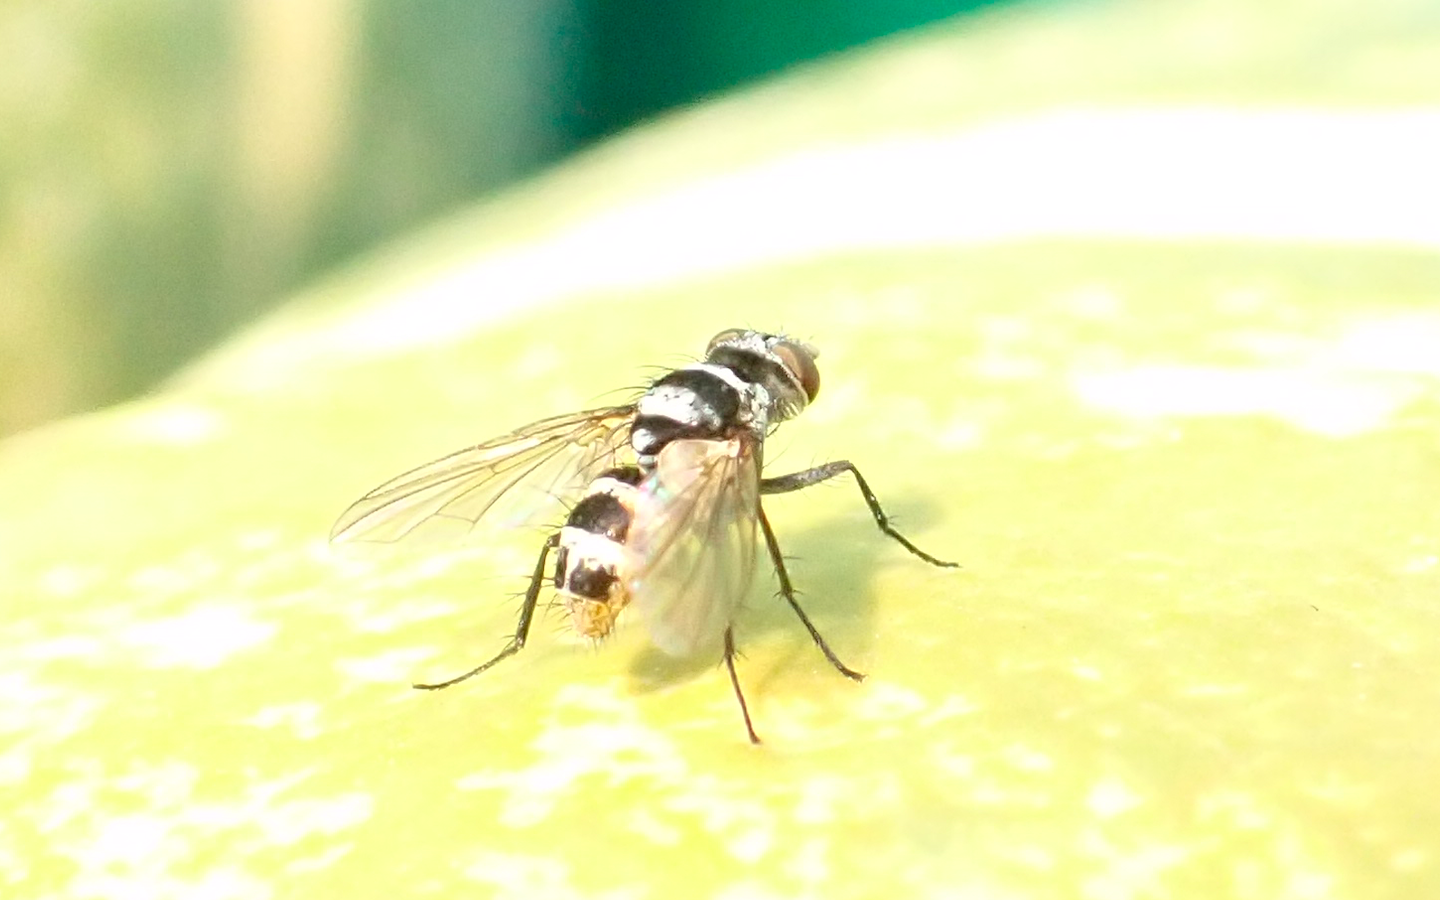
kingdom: Animalia
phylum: Arthropoda
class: Insecta
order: Diptera
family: Tachinidae
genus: Trigonospila
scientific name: Trigonospila brevifacies
